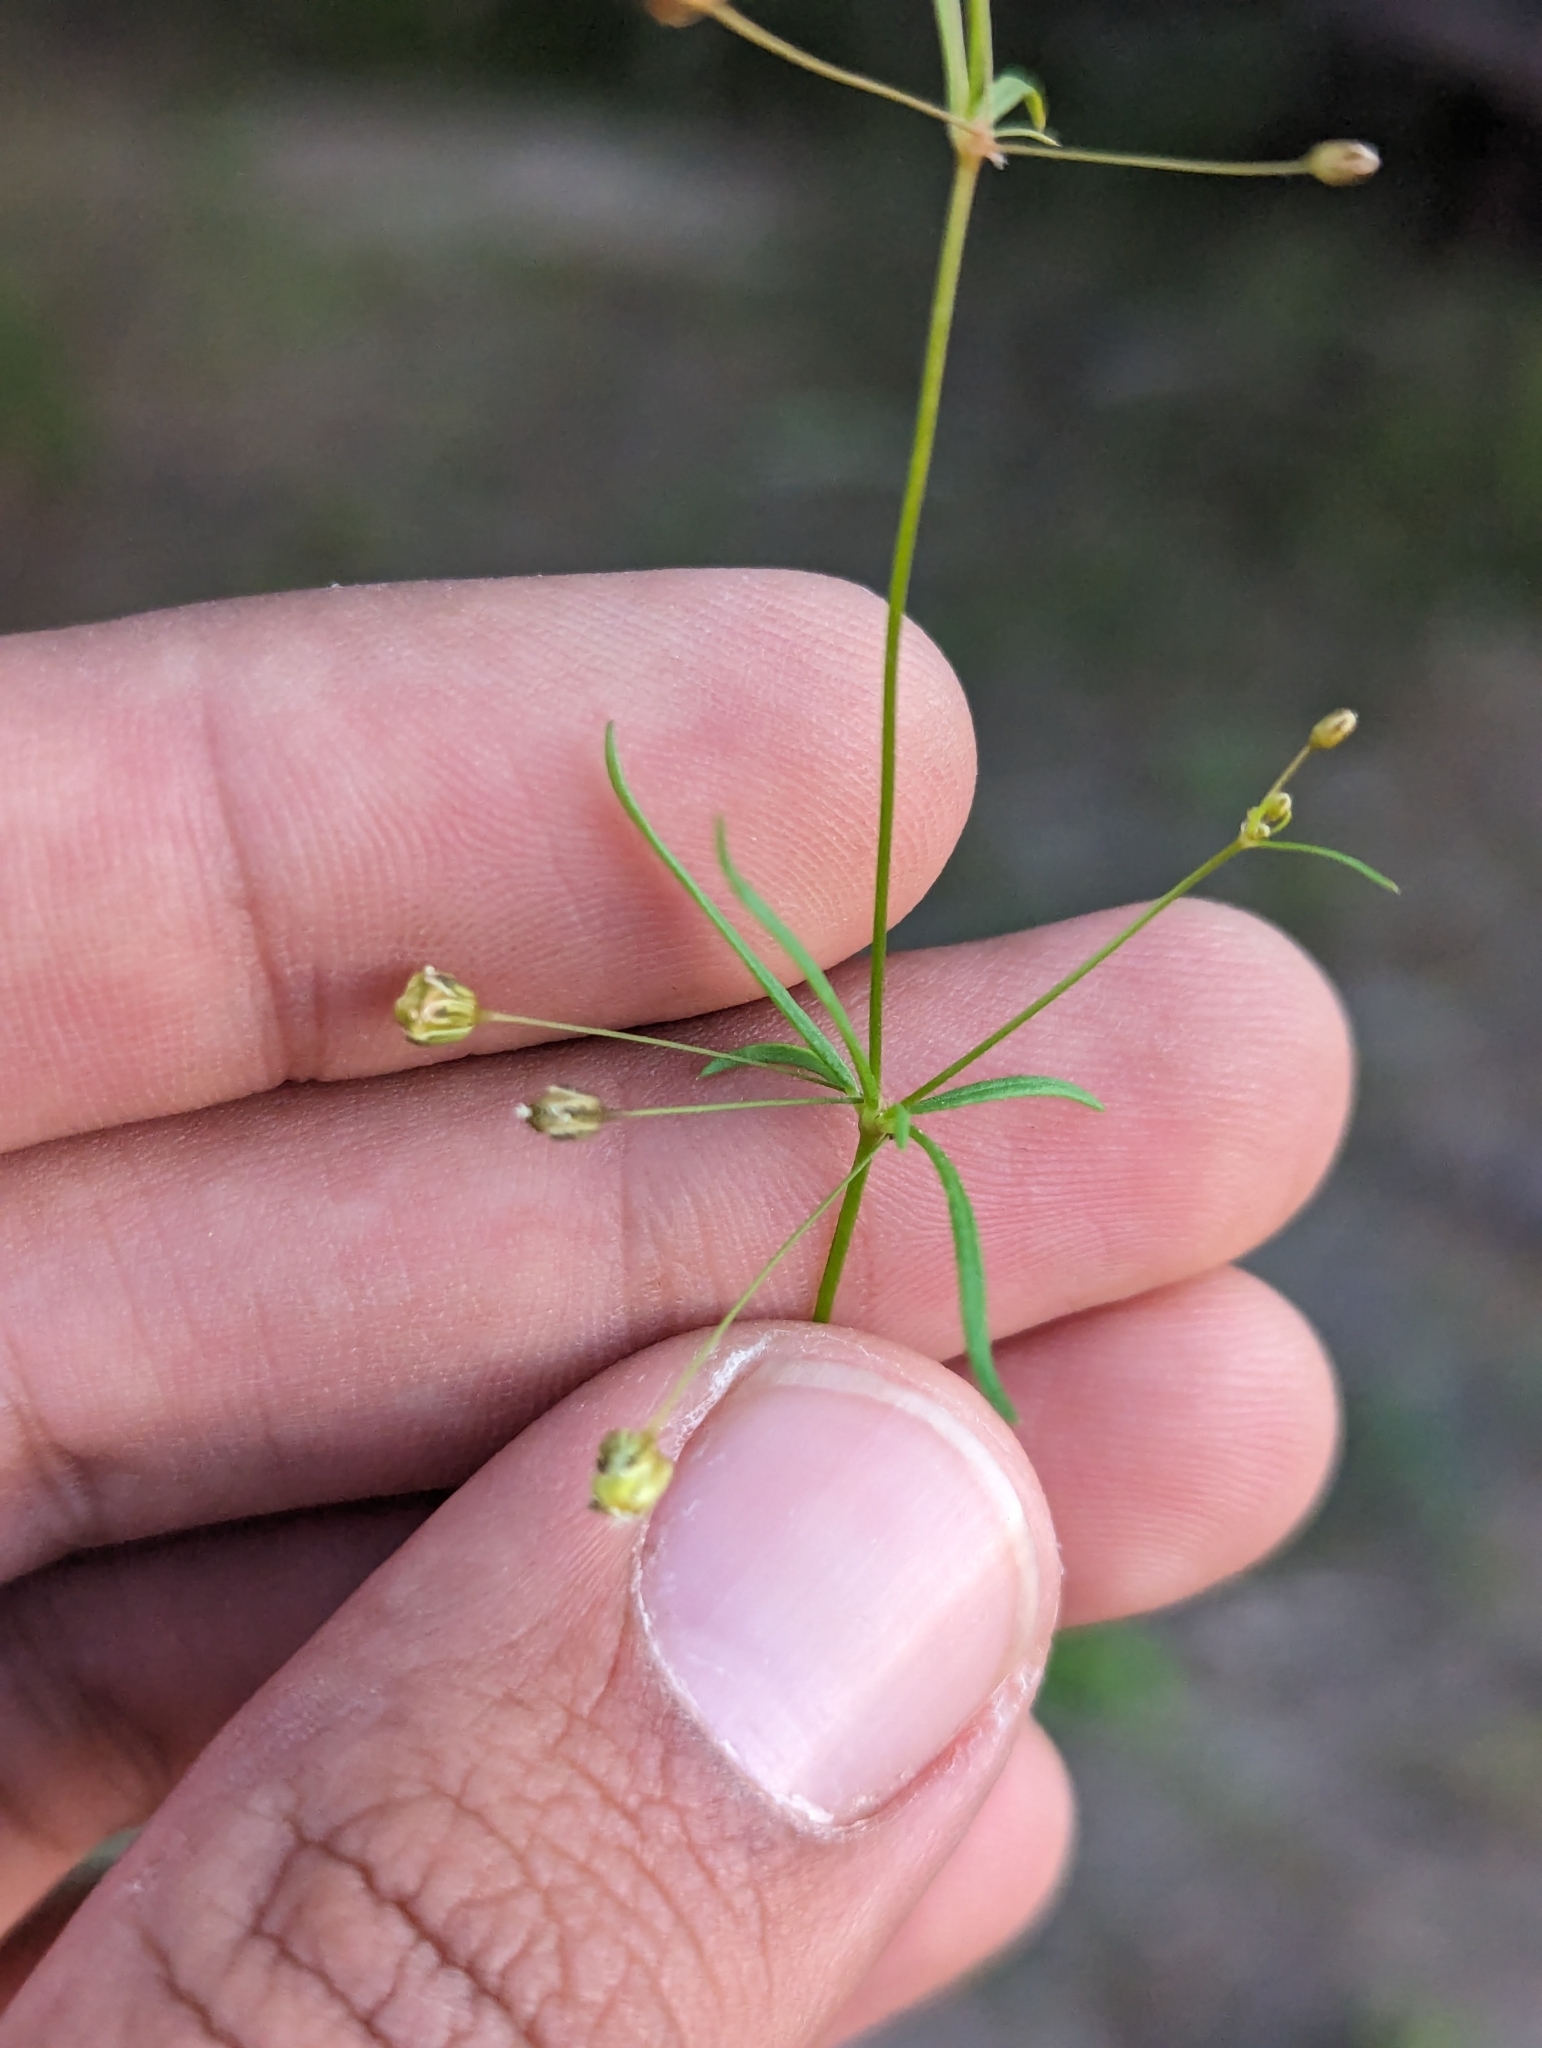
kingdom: Plantae
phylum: Tracheophyta
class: Magnoliopsida
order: Caryophyllales
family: Molluginaceae
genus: Mollugo
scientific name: Mollugo verticillata
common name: Green carpetweed
